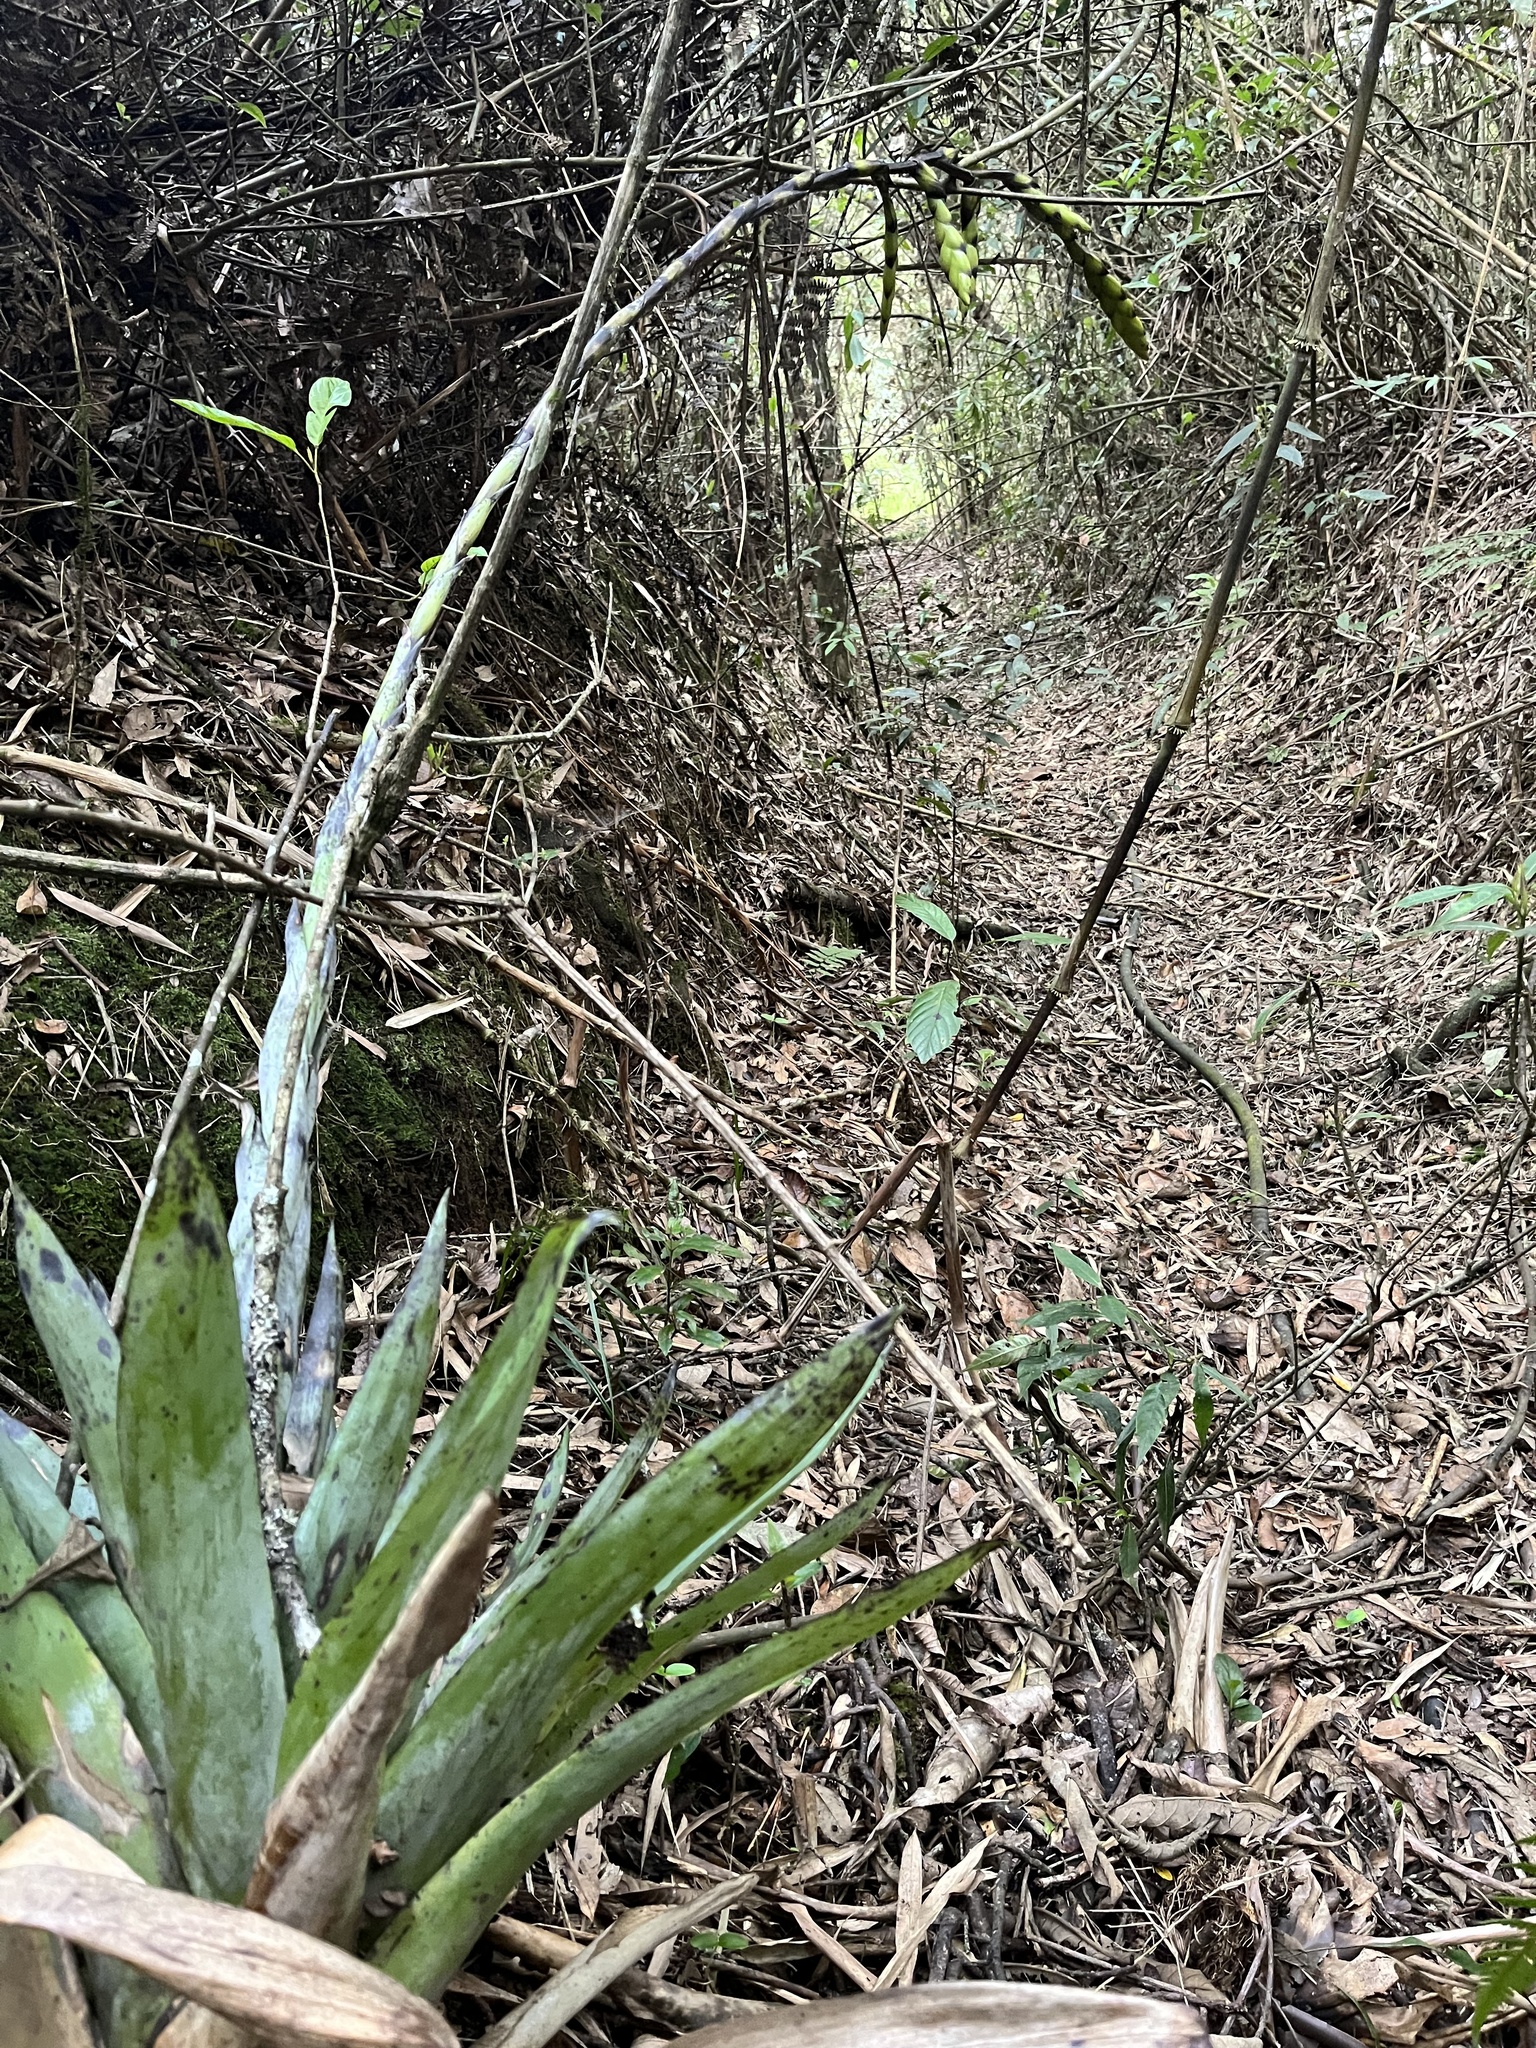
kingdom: Plantae
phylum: Tracheophyta
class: Liliopsida
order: Poales
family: Bromeliaceae
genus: Tillandsia
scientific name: Tillandsia francisci
